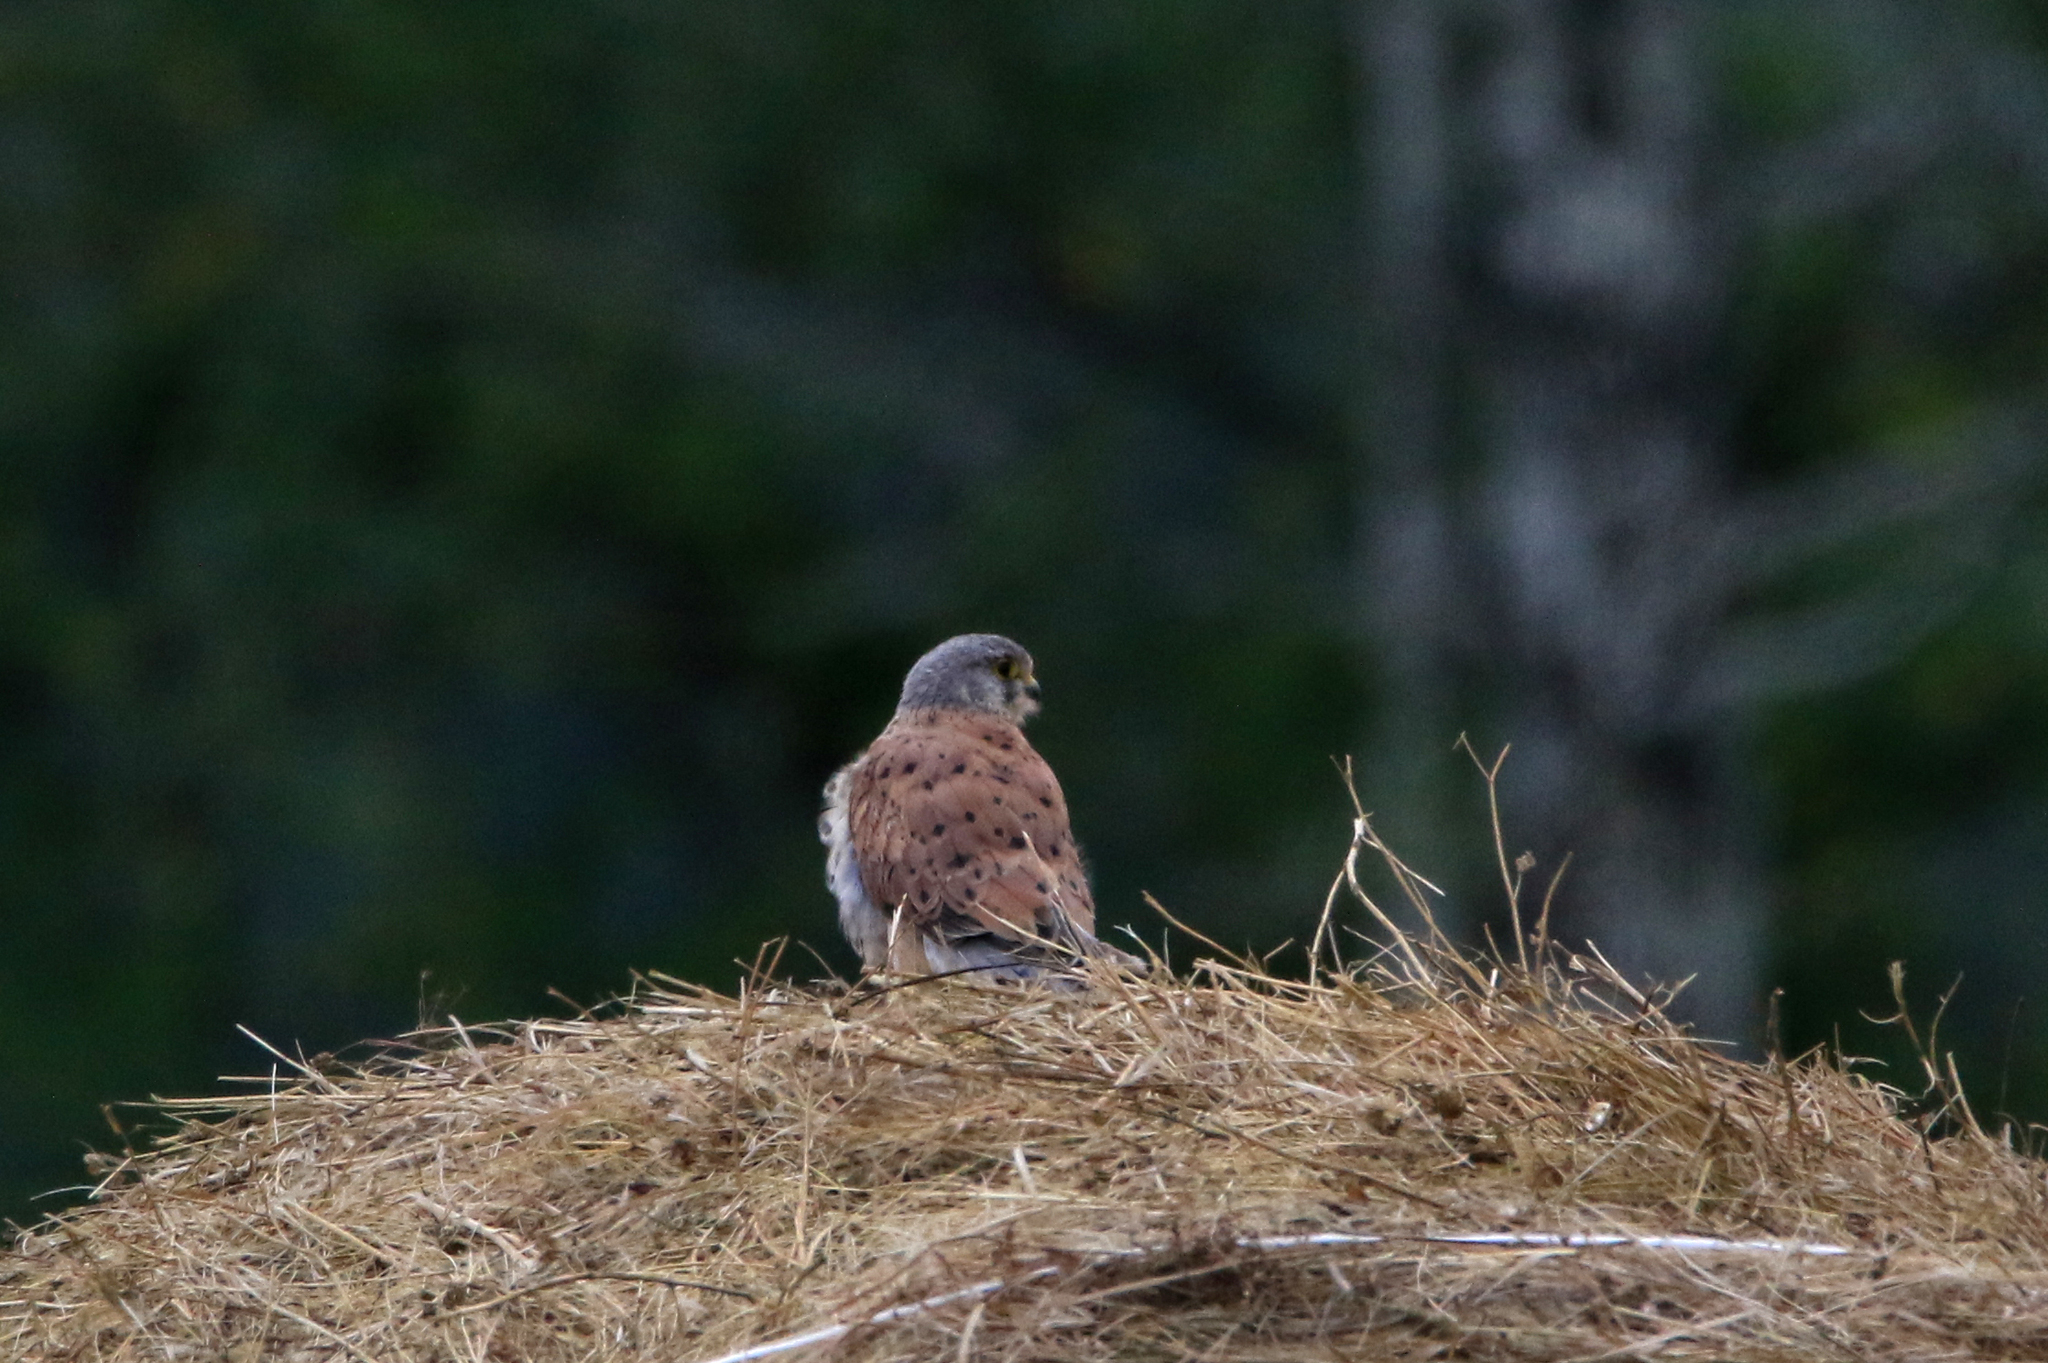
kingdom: Animalia
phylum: Chordata
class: Aves
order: Falconiformes
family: Falconidae
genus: Falco
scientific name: Falco tinnunculus
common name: Common kestrel
